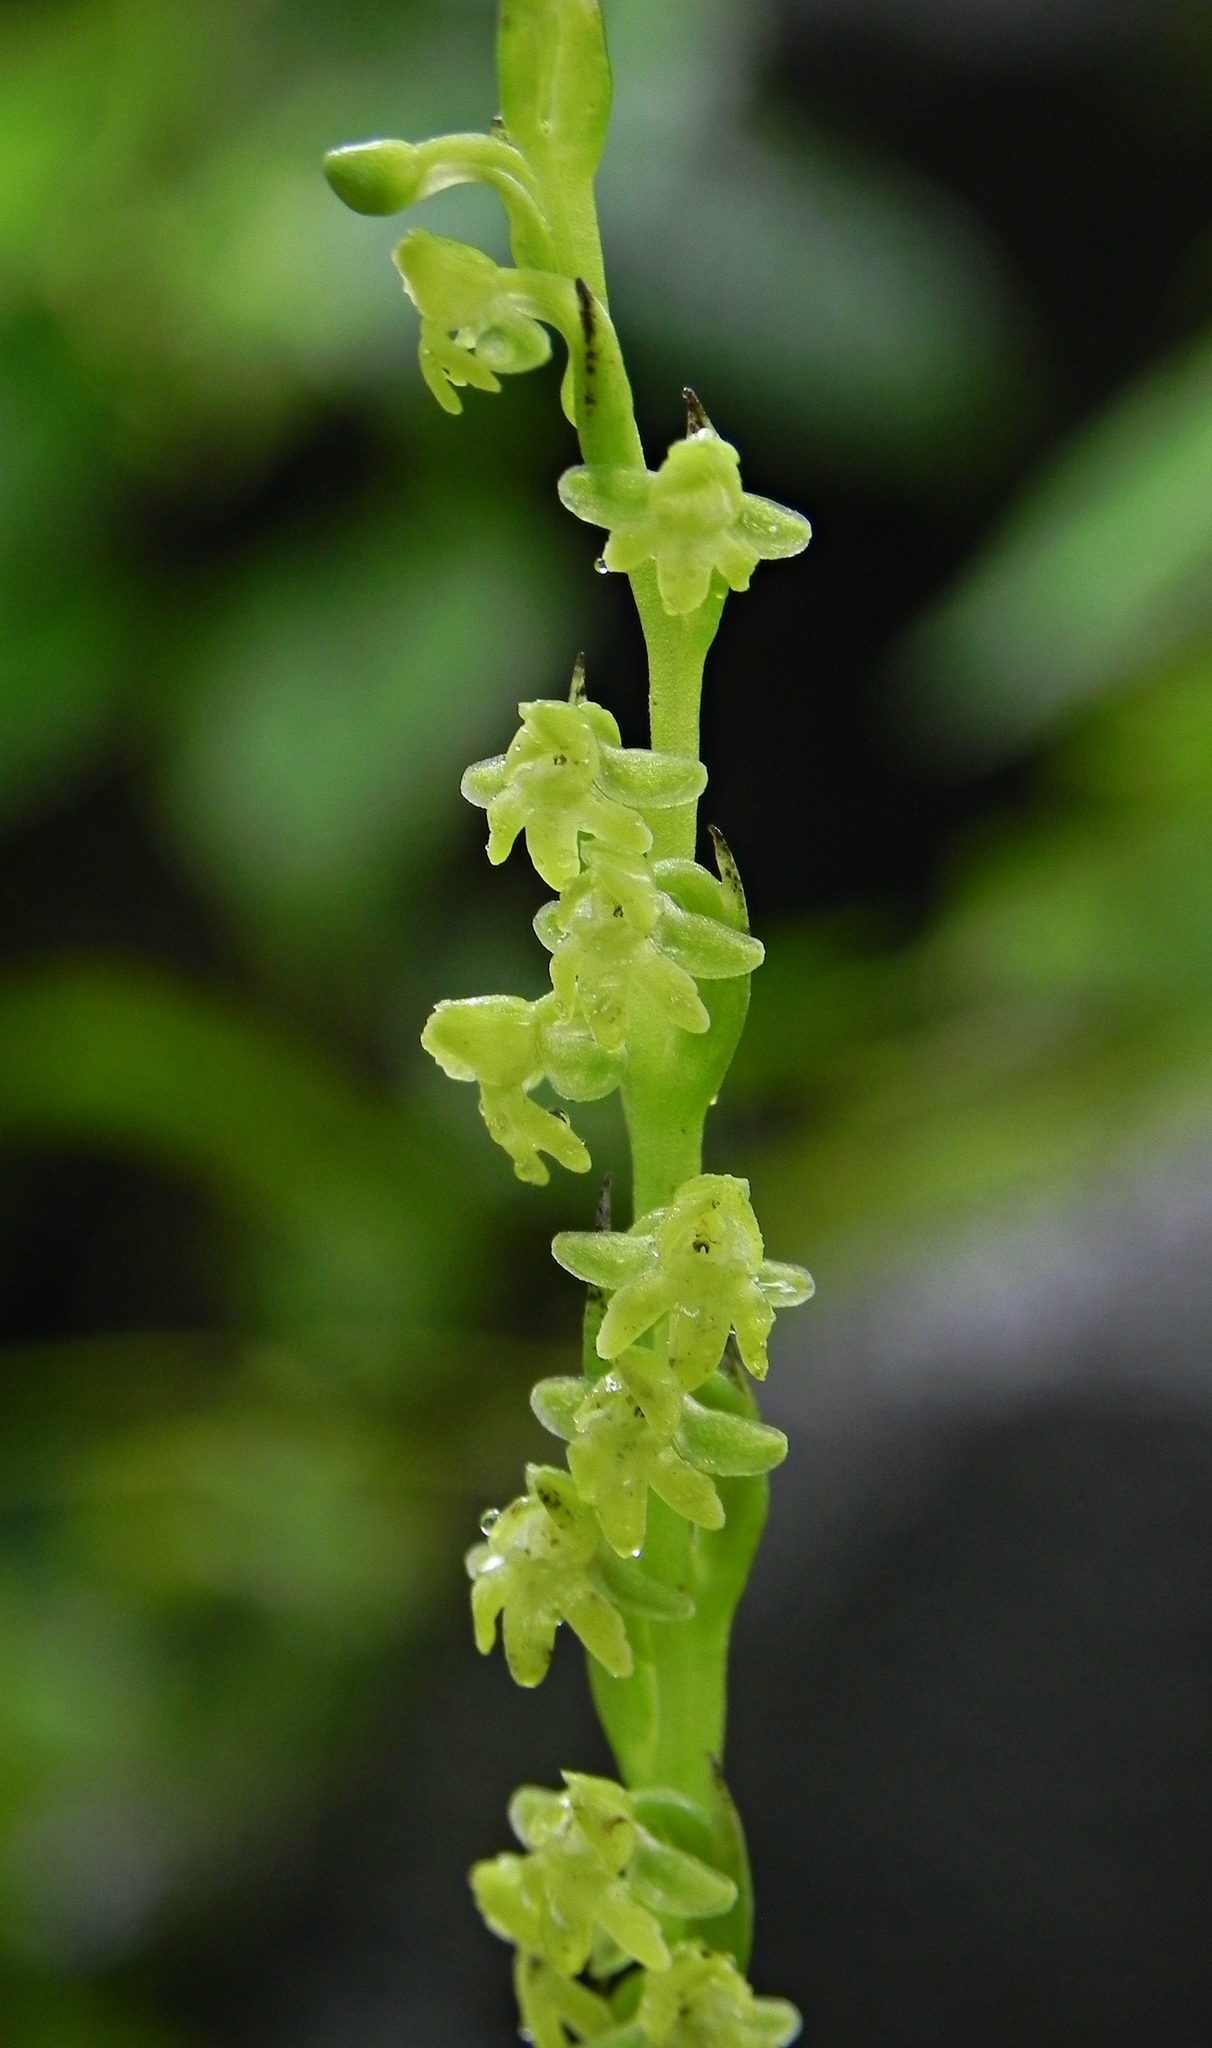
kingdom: Plantae
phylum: Tracheophyta
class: Liliopsida
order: Asparagales
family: Orchidaceae
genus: Peristylus
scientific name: Peristylus caranjensis
